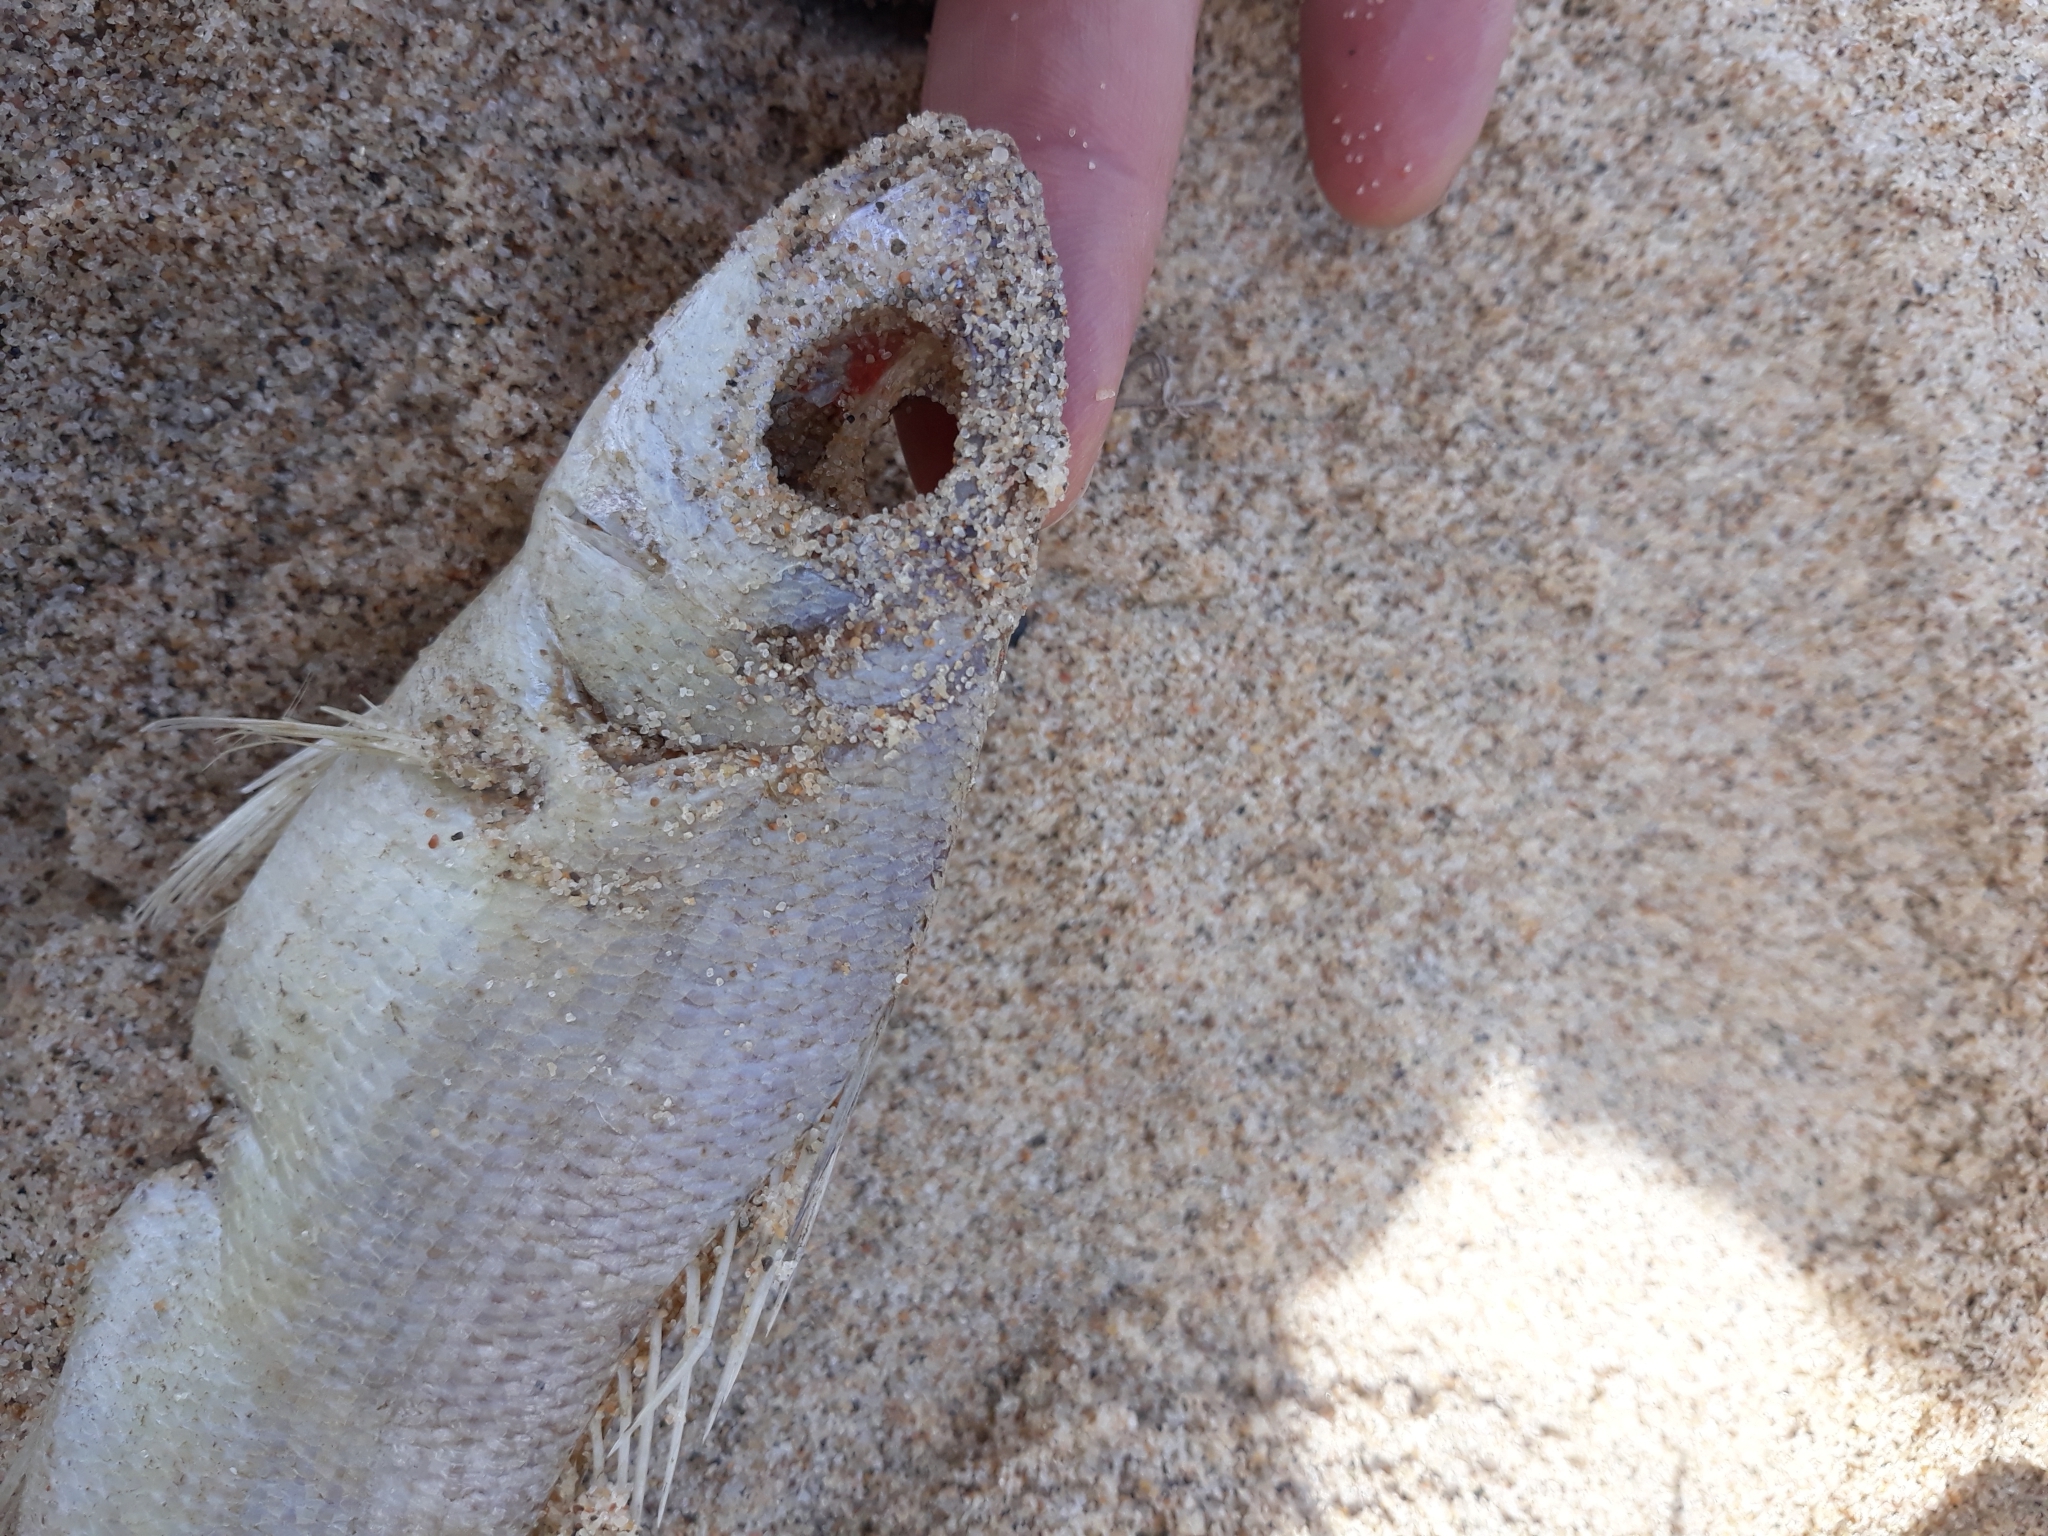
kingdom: Animalia
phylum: Chordata
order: Perciformes
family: Sparidae
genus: Pagellus
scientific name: Pagellus acarne
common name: Axillary sea-bream
